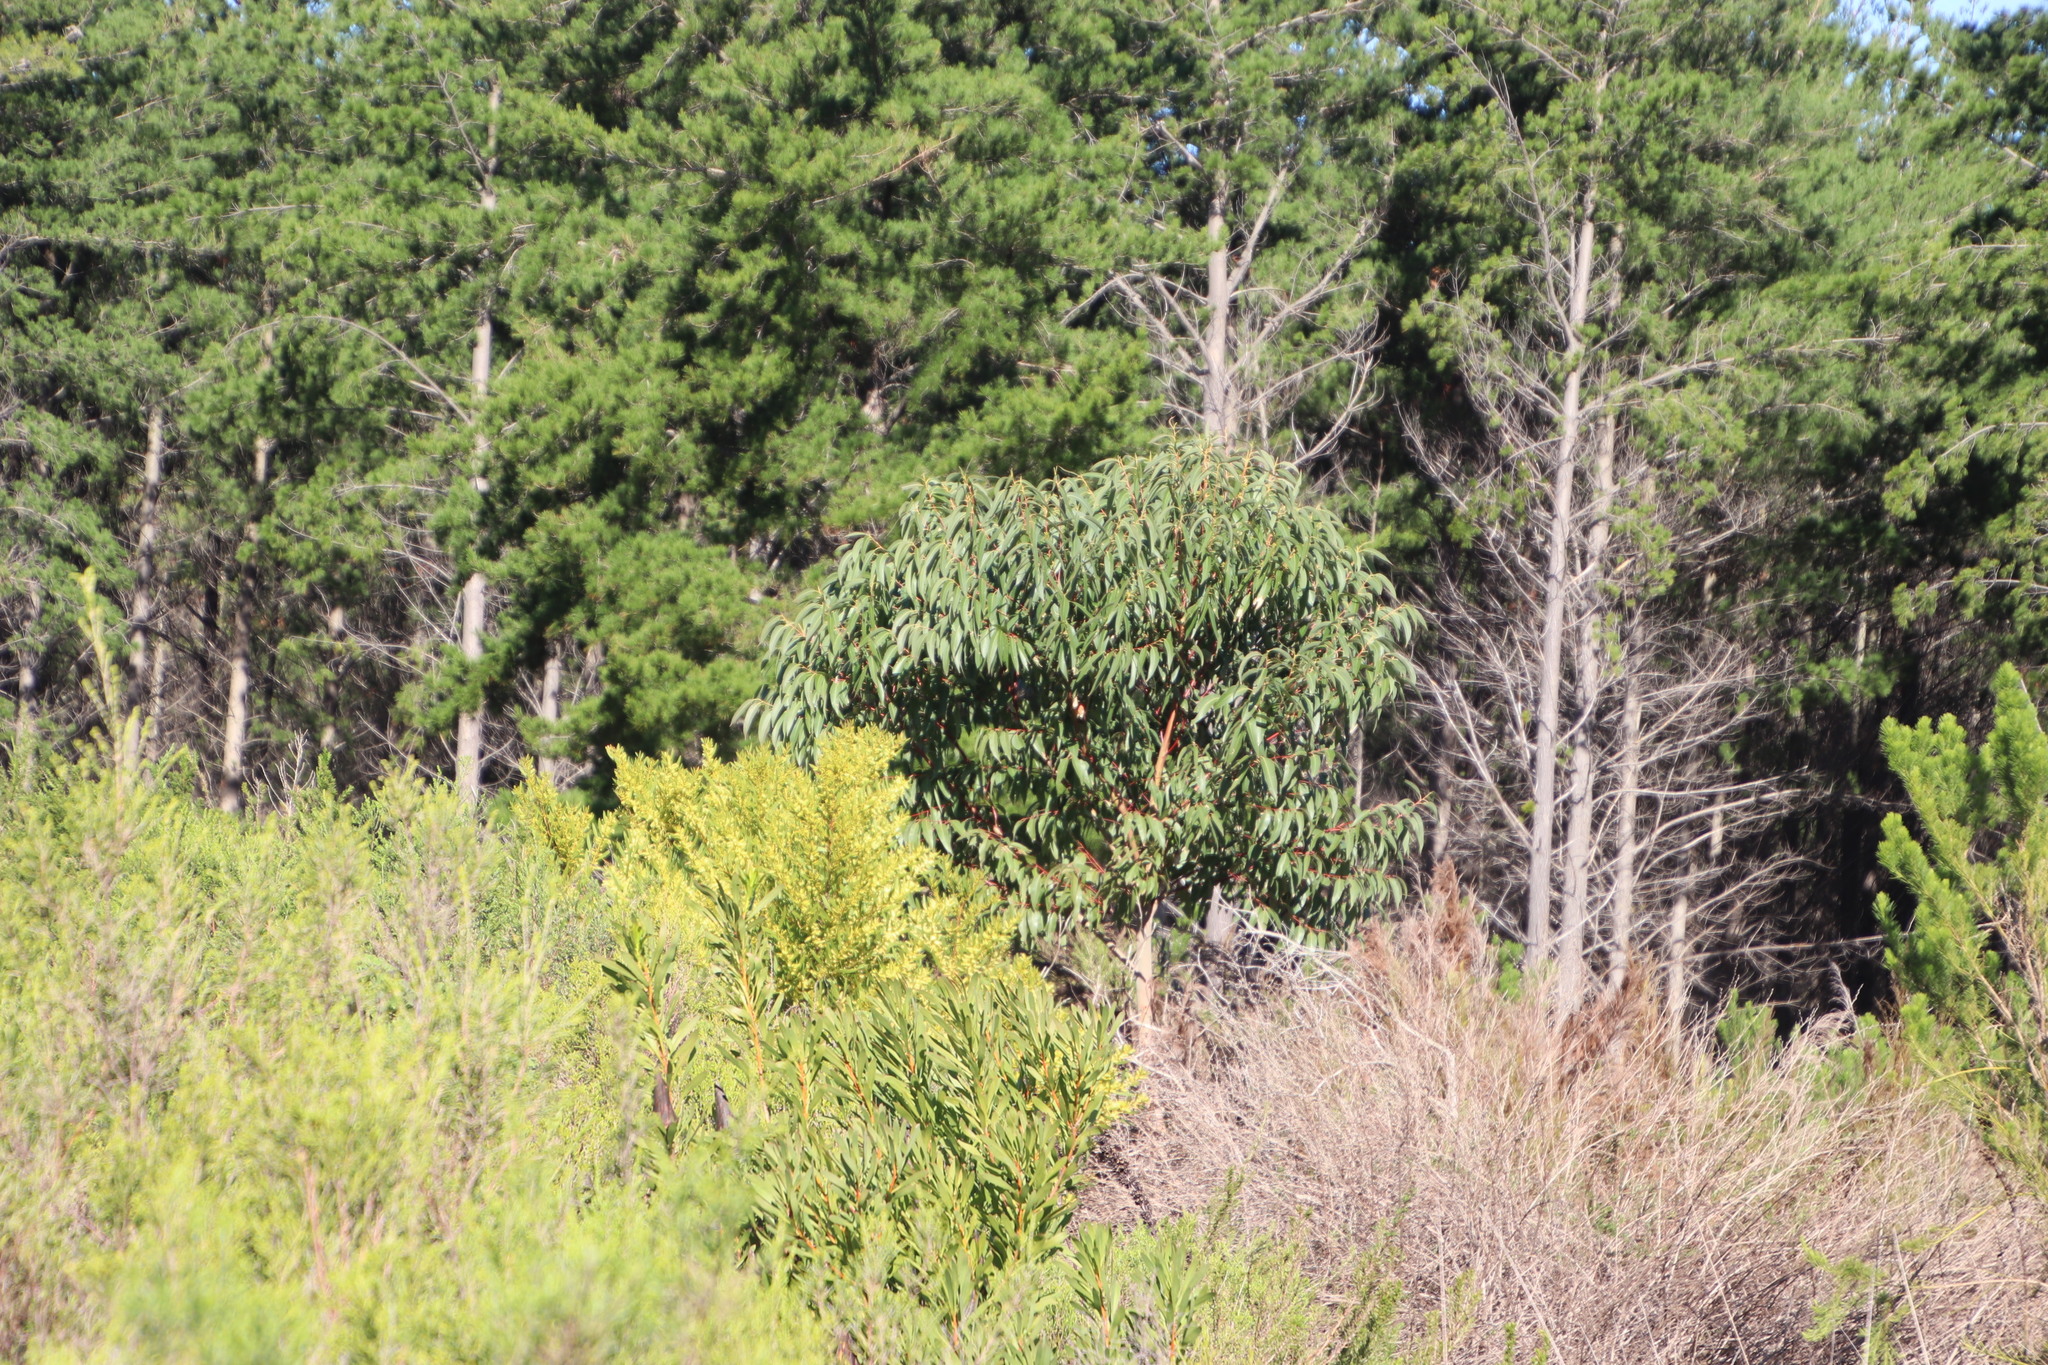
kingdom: Plantae
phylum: Tracheophyta
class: Magnoliopsida
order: Myrtales
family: Myrtaceae
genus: Eucalyptus
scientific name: Eucalyptus botryoides
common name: Bangalay
